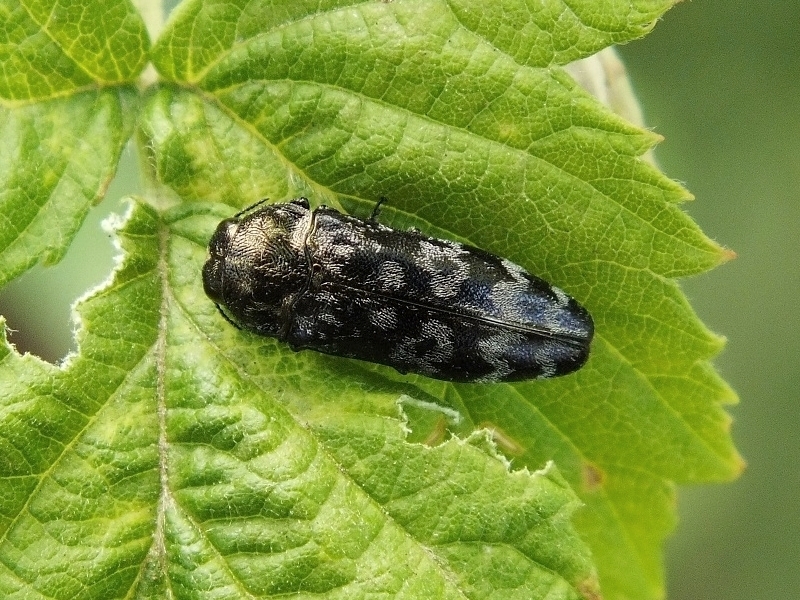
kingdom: Animalia
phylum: Arthropoda
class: Insecta
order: Coleoptera
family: Buprestidae
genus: Coraebus
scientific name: Coraebus rubi
